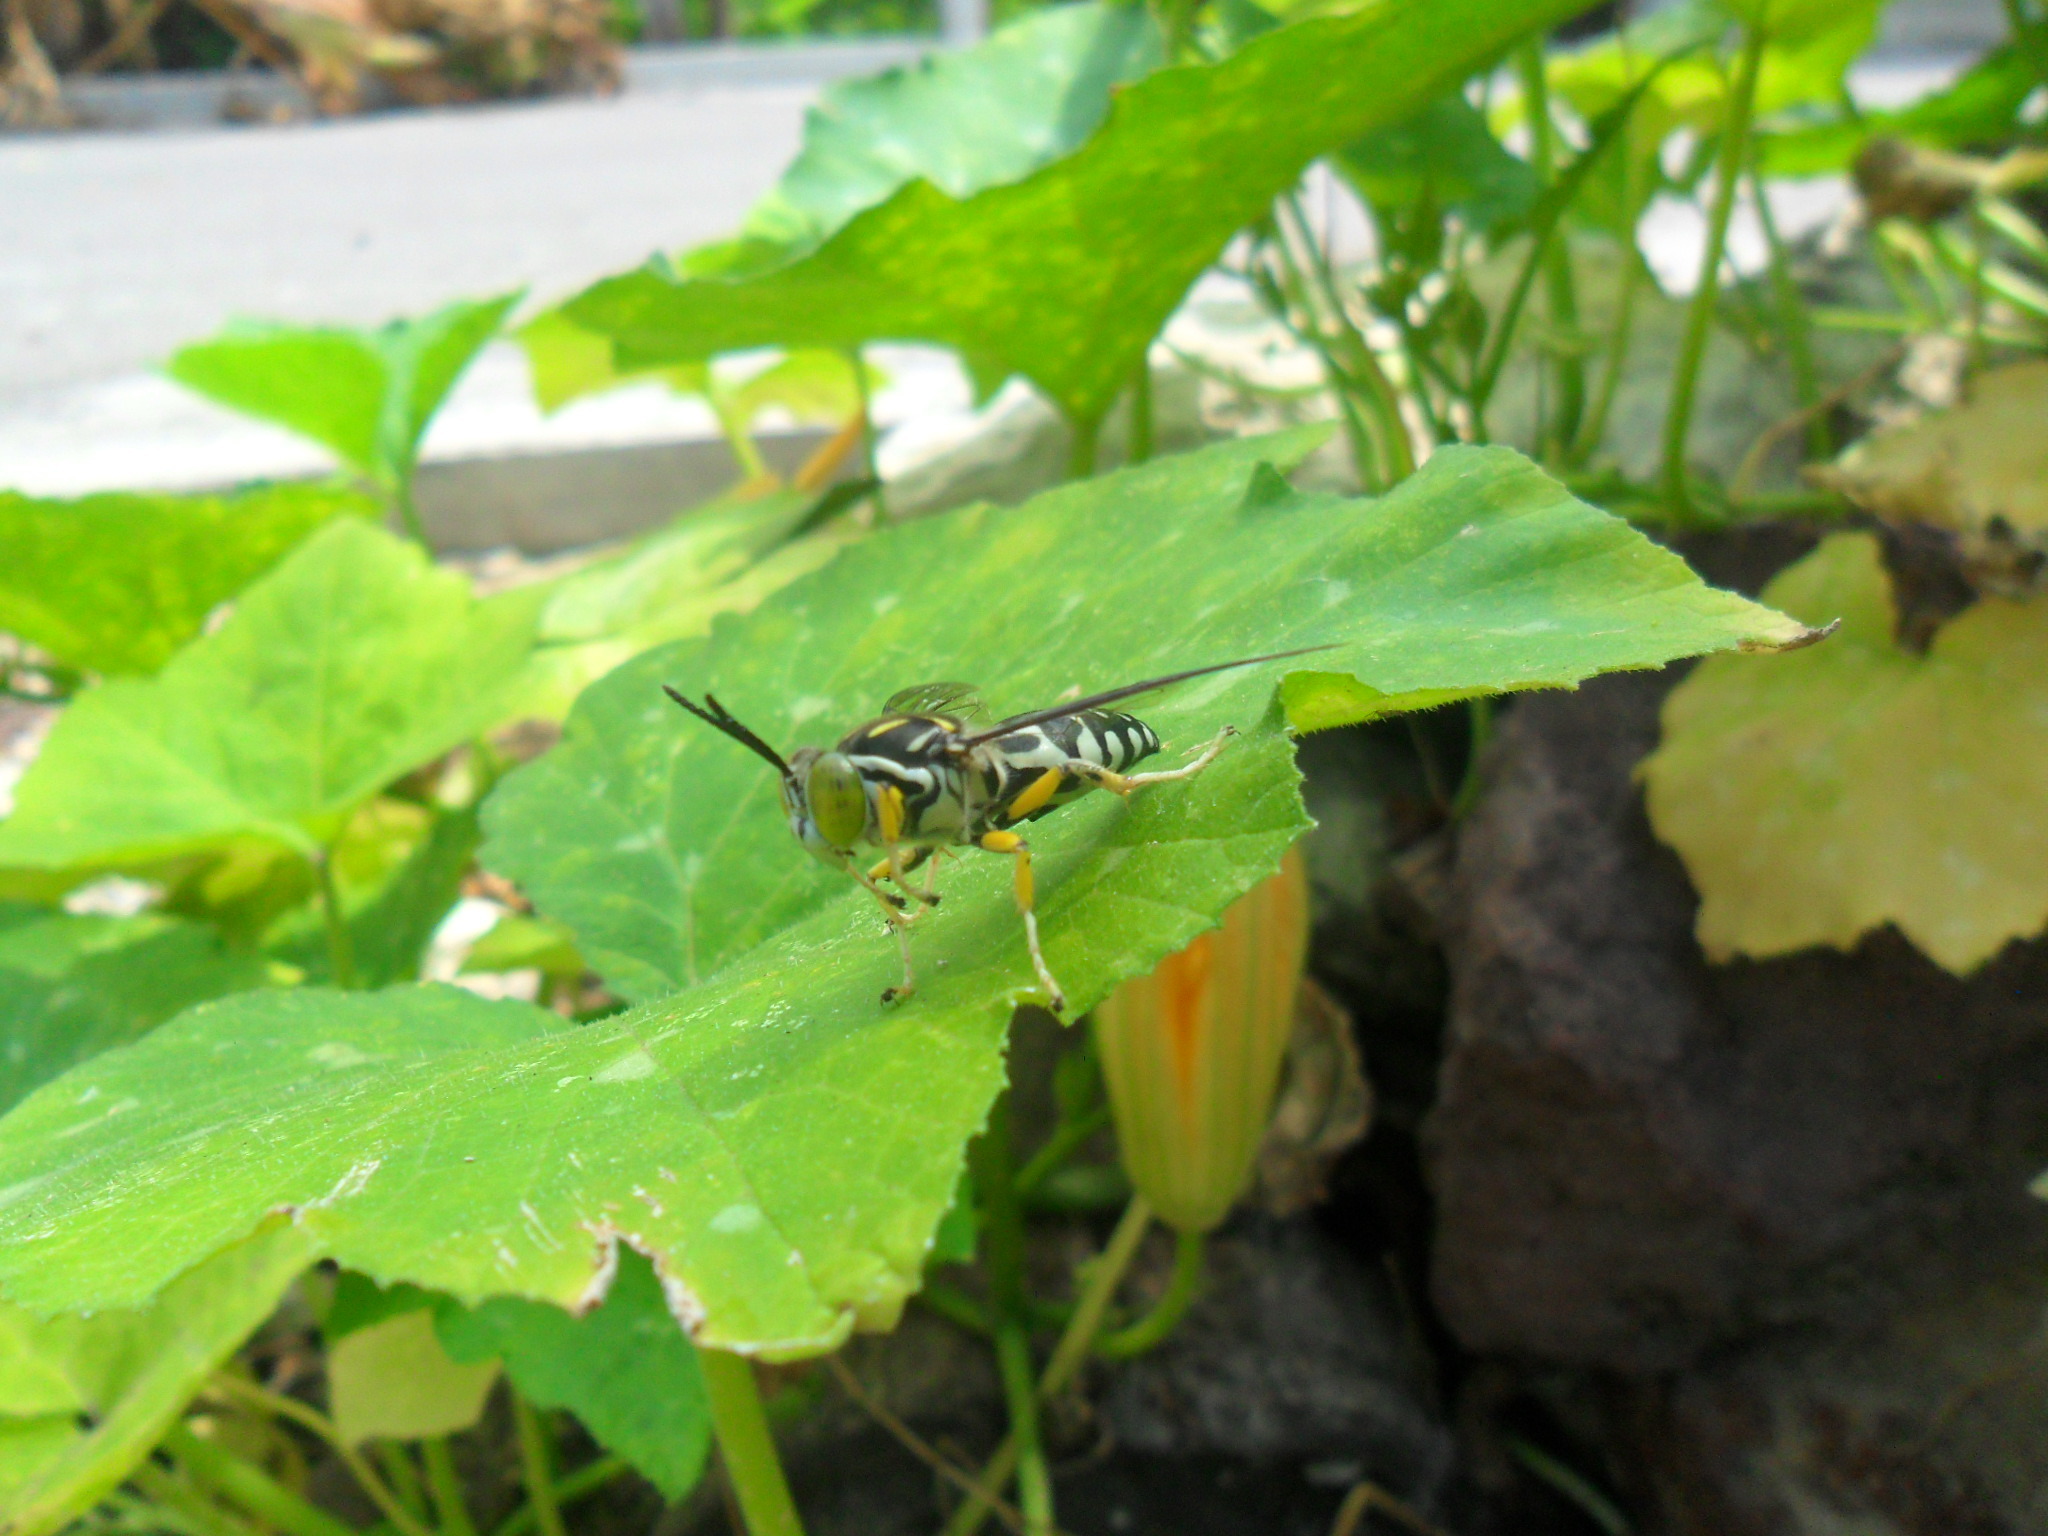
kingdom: Animalia
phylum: Arthropoda
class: Insecta
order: Hymenoptera
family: Crabronidae
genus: Stictia
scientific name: Stictia maculata
